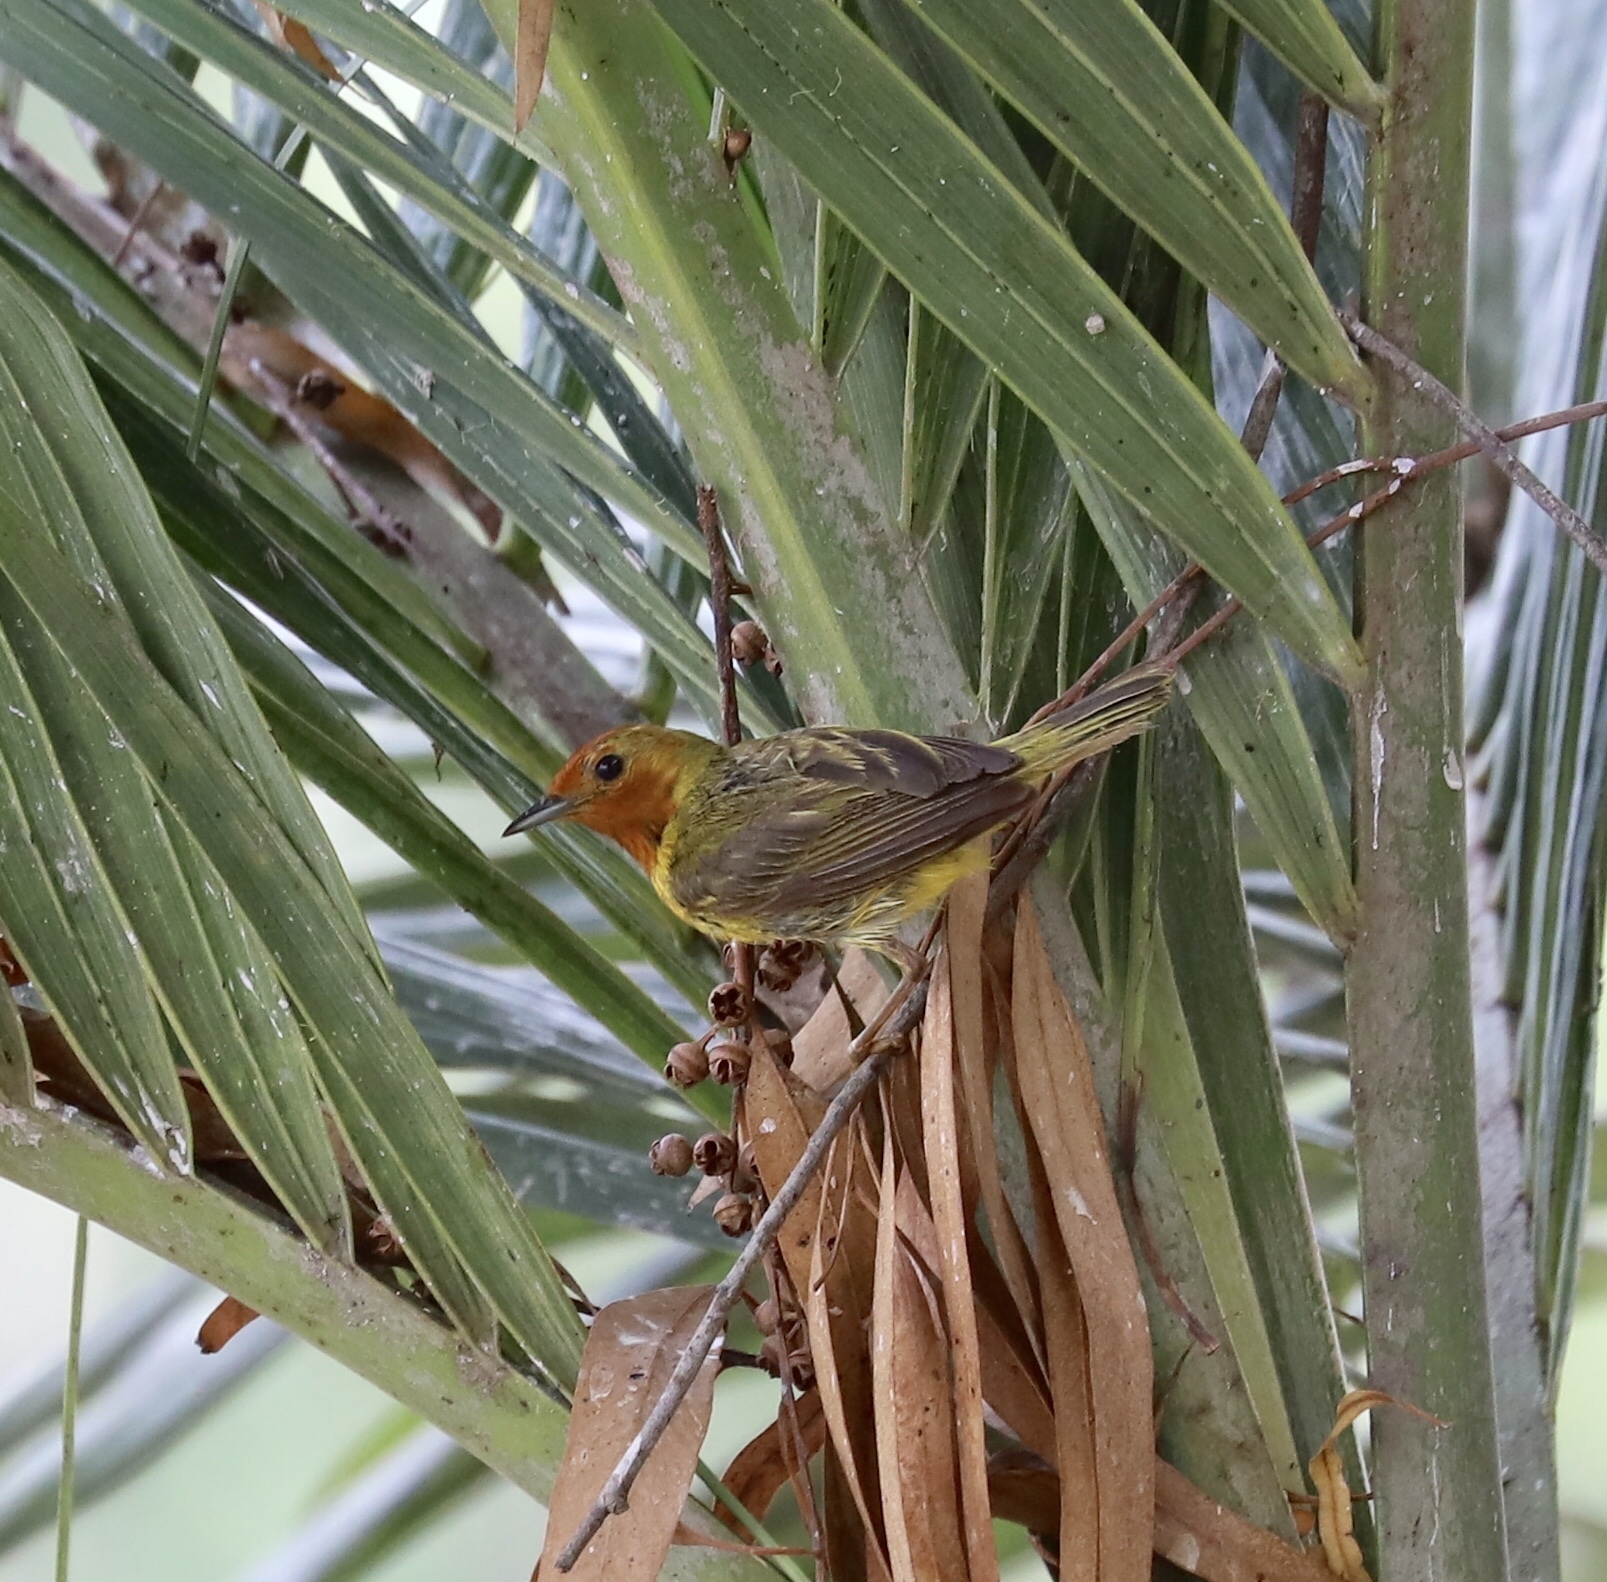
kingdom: Animalia
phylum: Chordata
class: Aves
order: Passeriformes
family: Parulidae
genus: Setophaga
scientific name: Setophaga petechia
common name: Yellow warbler
